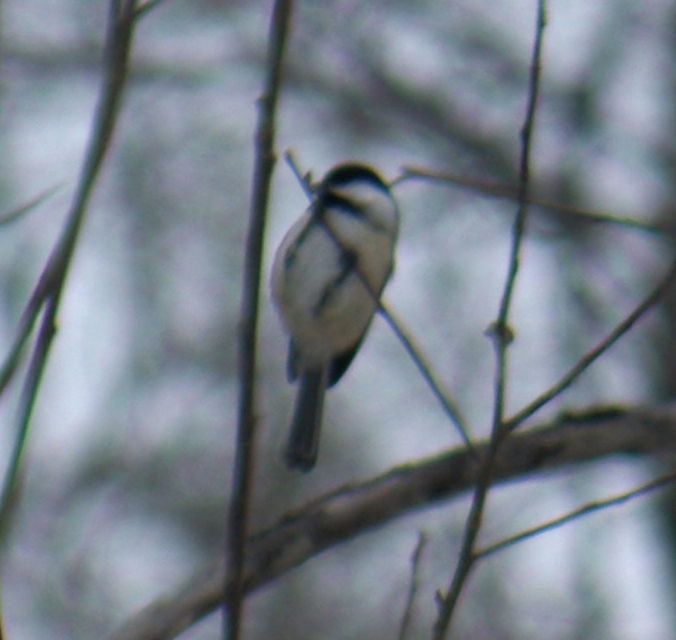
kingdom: Animalia
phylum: Chordata
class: Aves
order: Passeriformes
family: Paridae
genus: Poecile
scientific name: Poecile atricapillus
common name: Black-capped chickadee
